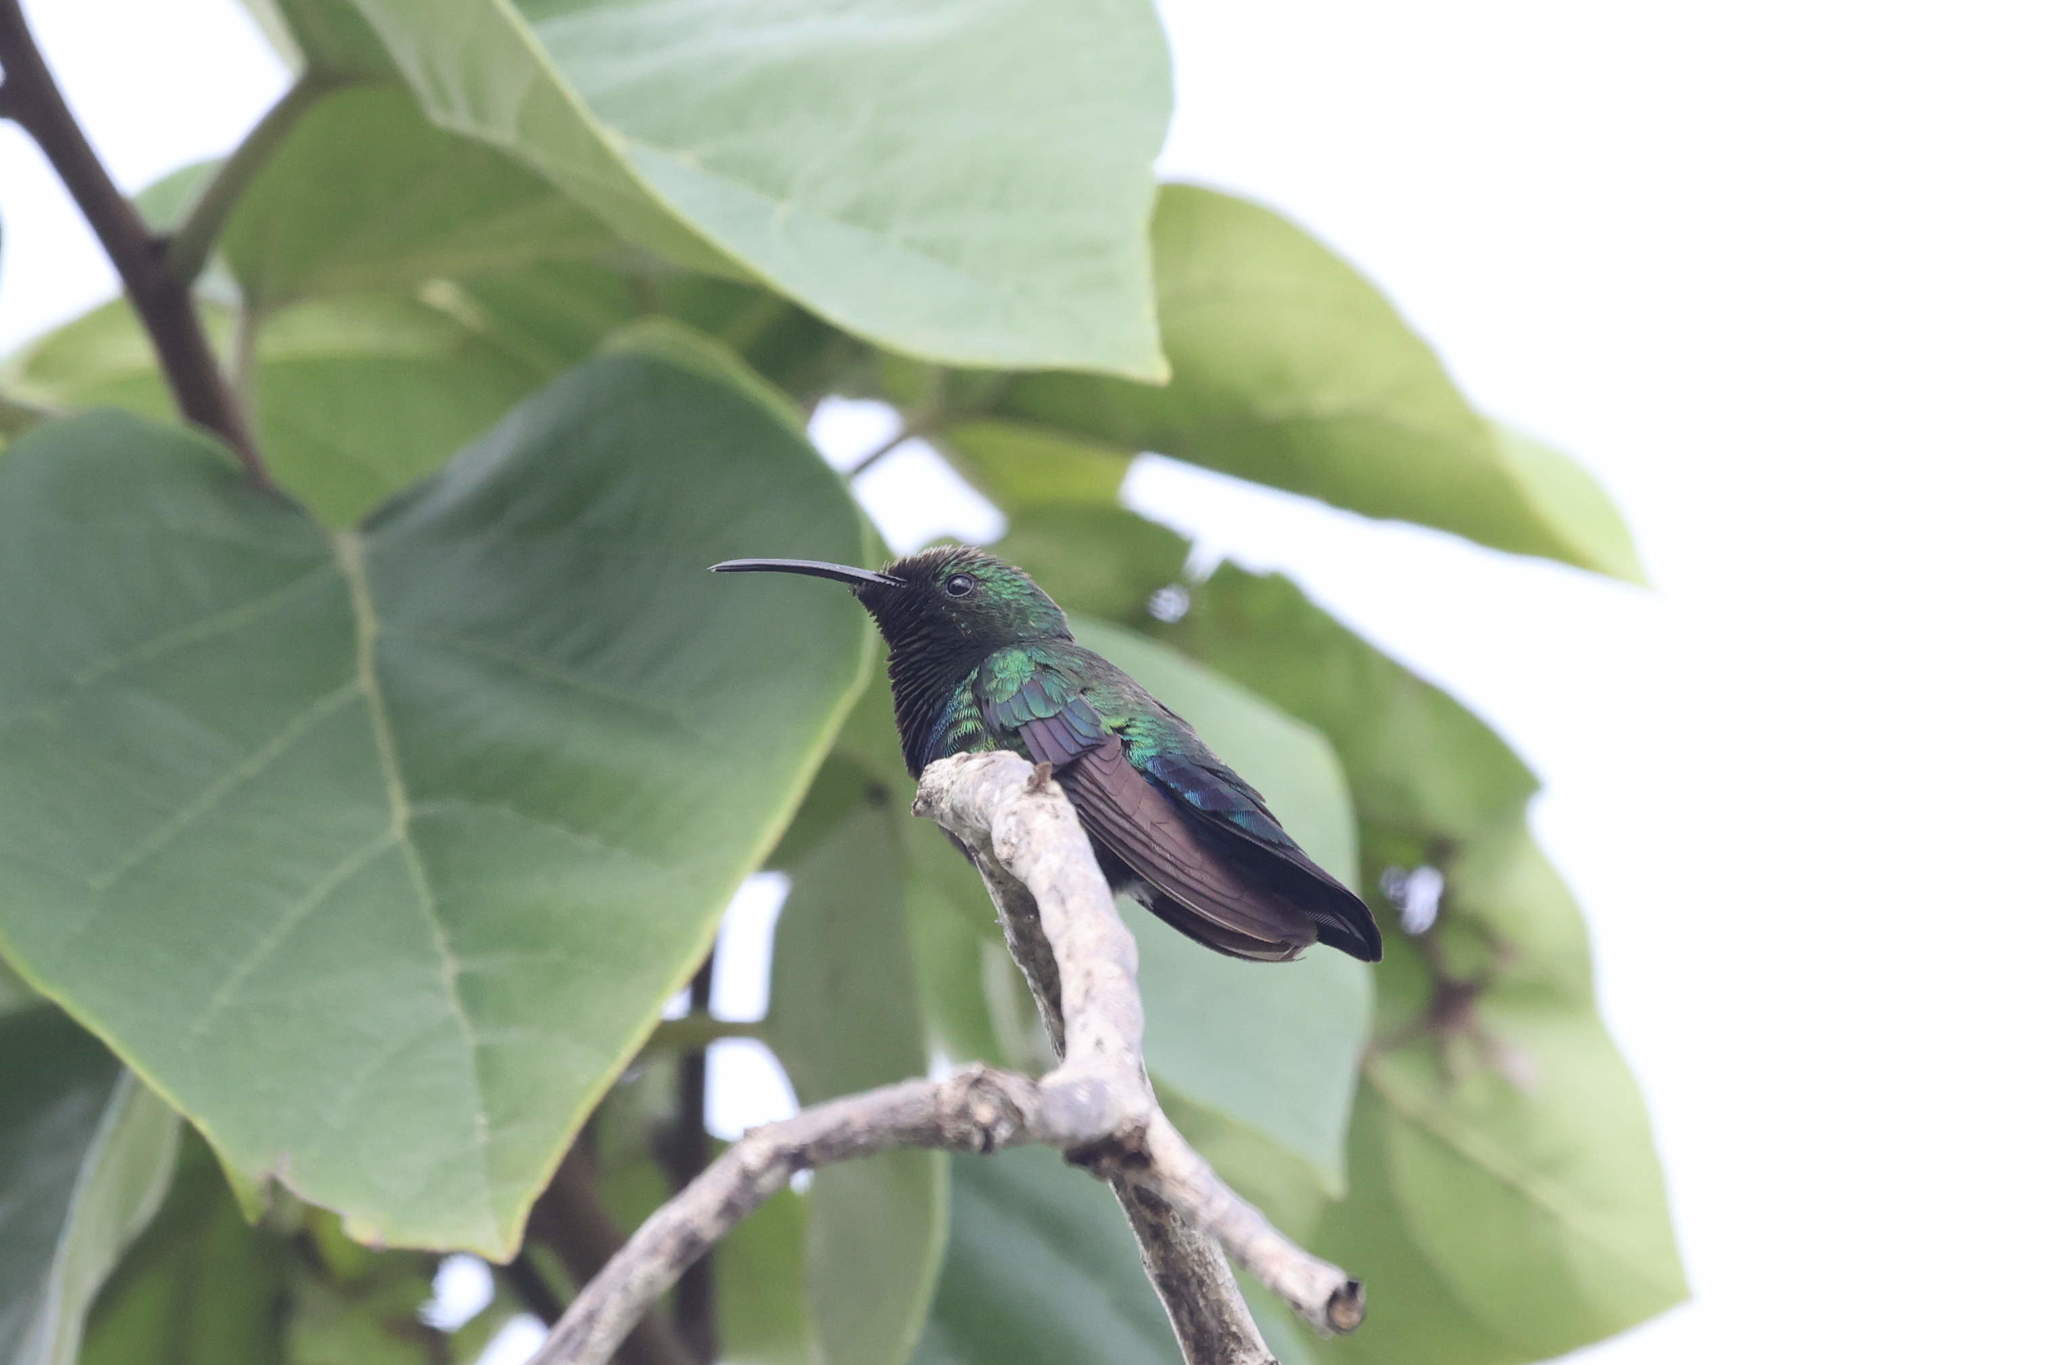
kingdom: Animalia
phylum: Chordata
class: Aves
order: Apodiformes
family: Trochilidae
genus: Eulampis
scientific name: Eulampis holosericeus
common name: Green-throated carib
